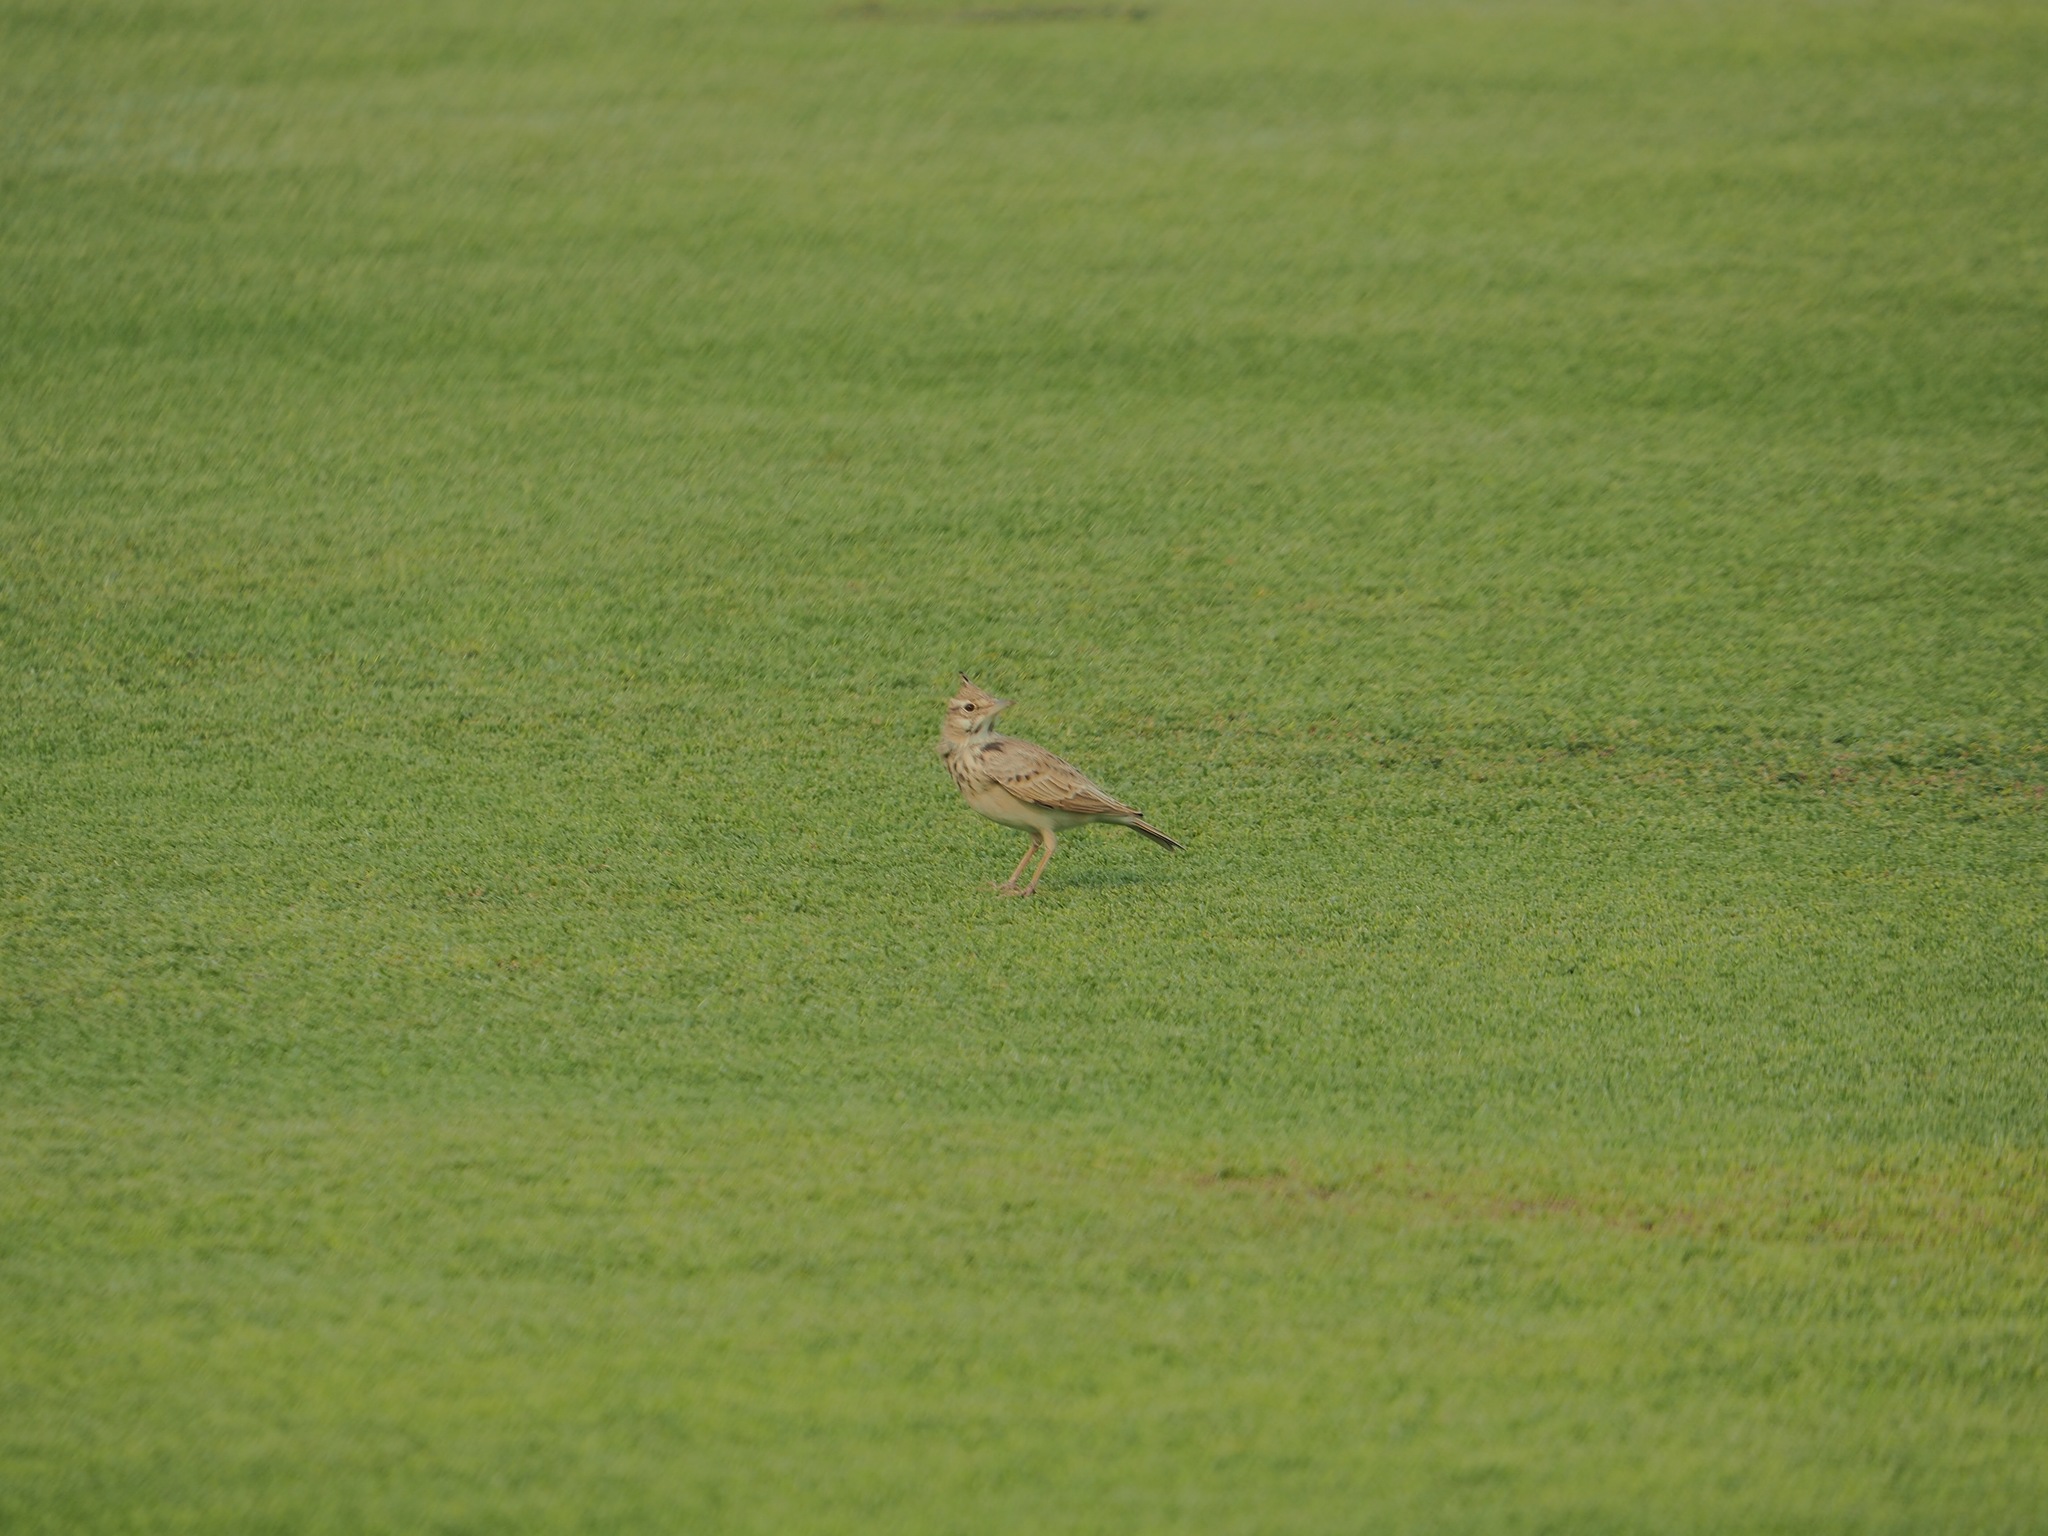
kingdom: Animalia
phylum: Chordata
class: Aves
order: Passeriformes
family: Alaudidae
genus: Galerida
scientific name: Galerida cristata
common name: Crested lark
